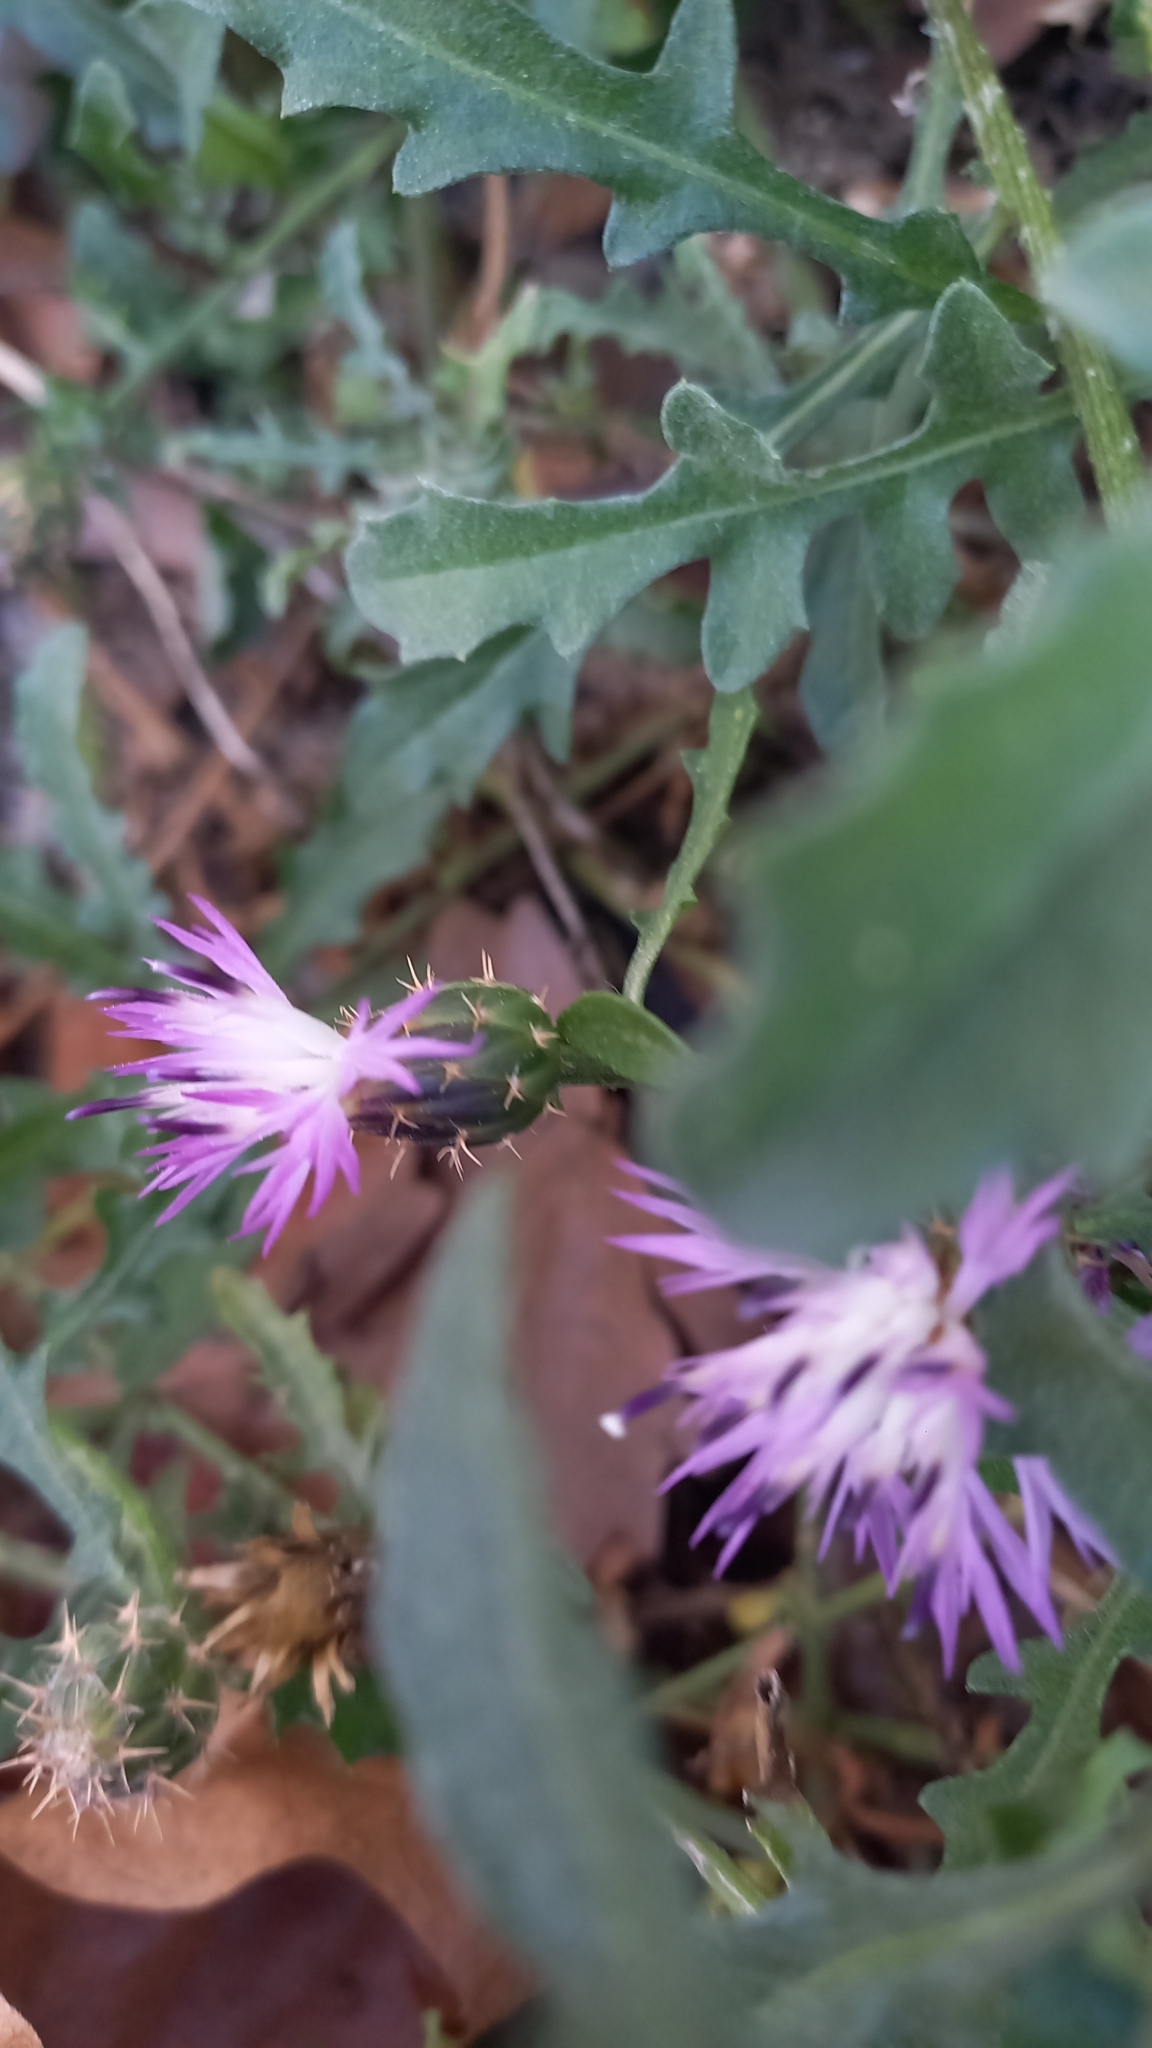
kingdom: Plantae
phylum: Tracheophyta
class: Magnoliopsida
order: Asterales
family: Asteraceae
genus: Centaurea
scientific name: Centaurea aspera
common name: Rough star-thistle
